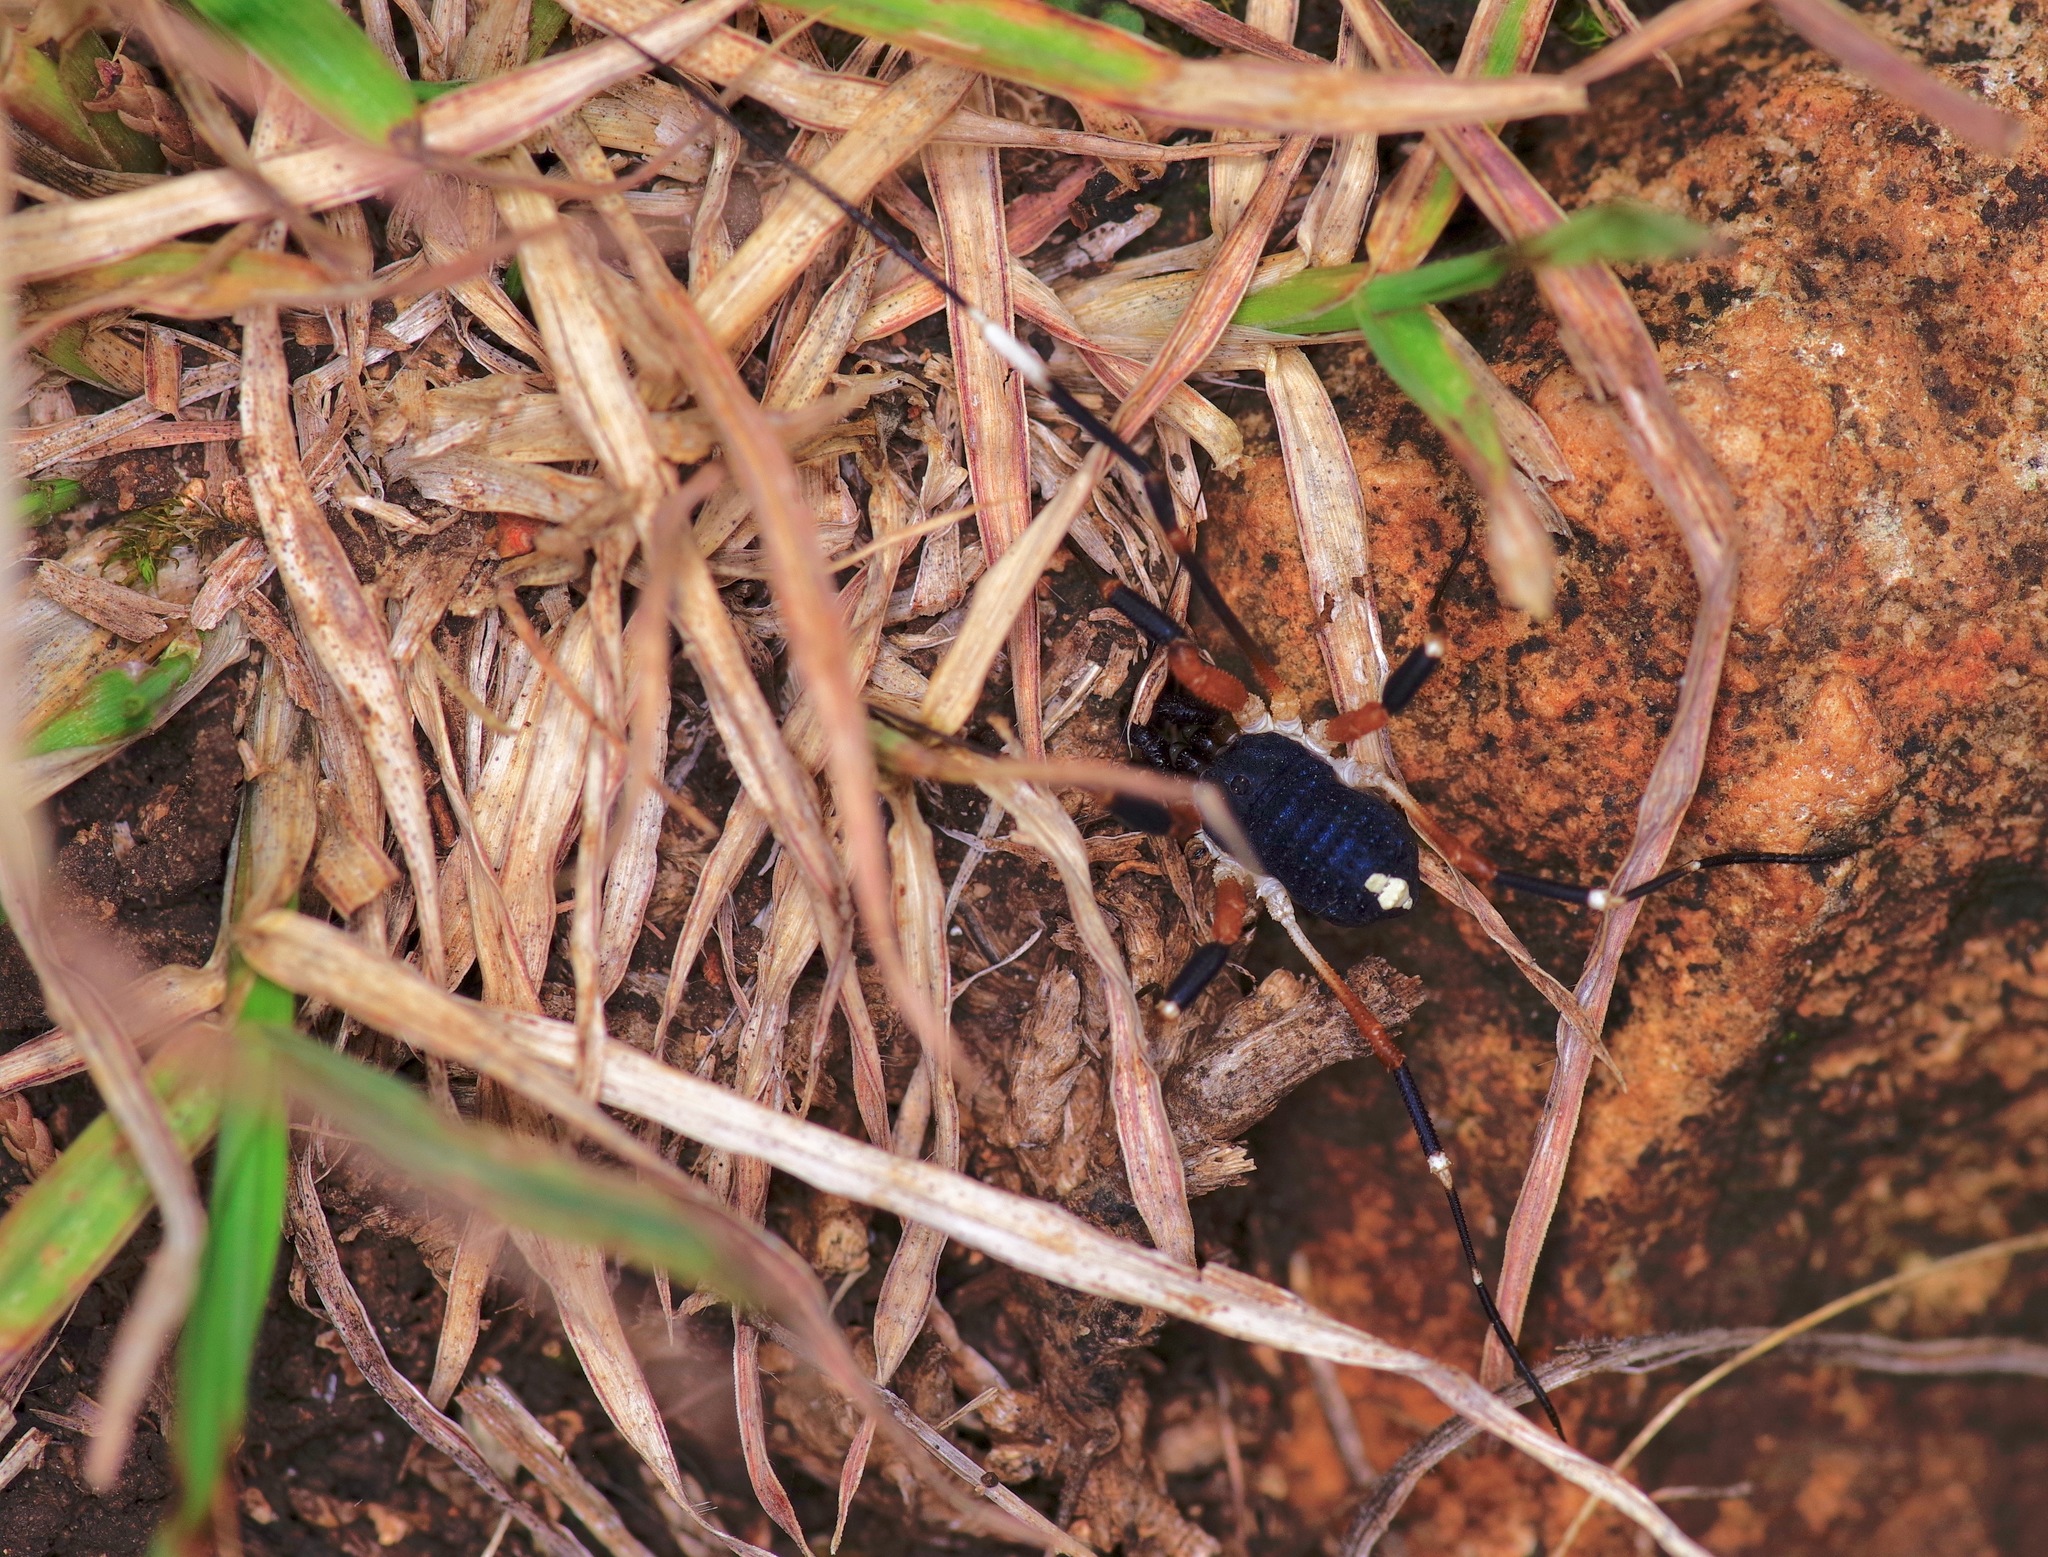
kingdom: Animalia
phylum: Arthropoda
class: Arachnida
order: Opiliones
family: Globipedidae
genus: Dalquestia
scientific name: Dalquestia formosa
